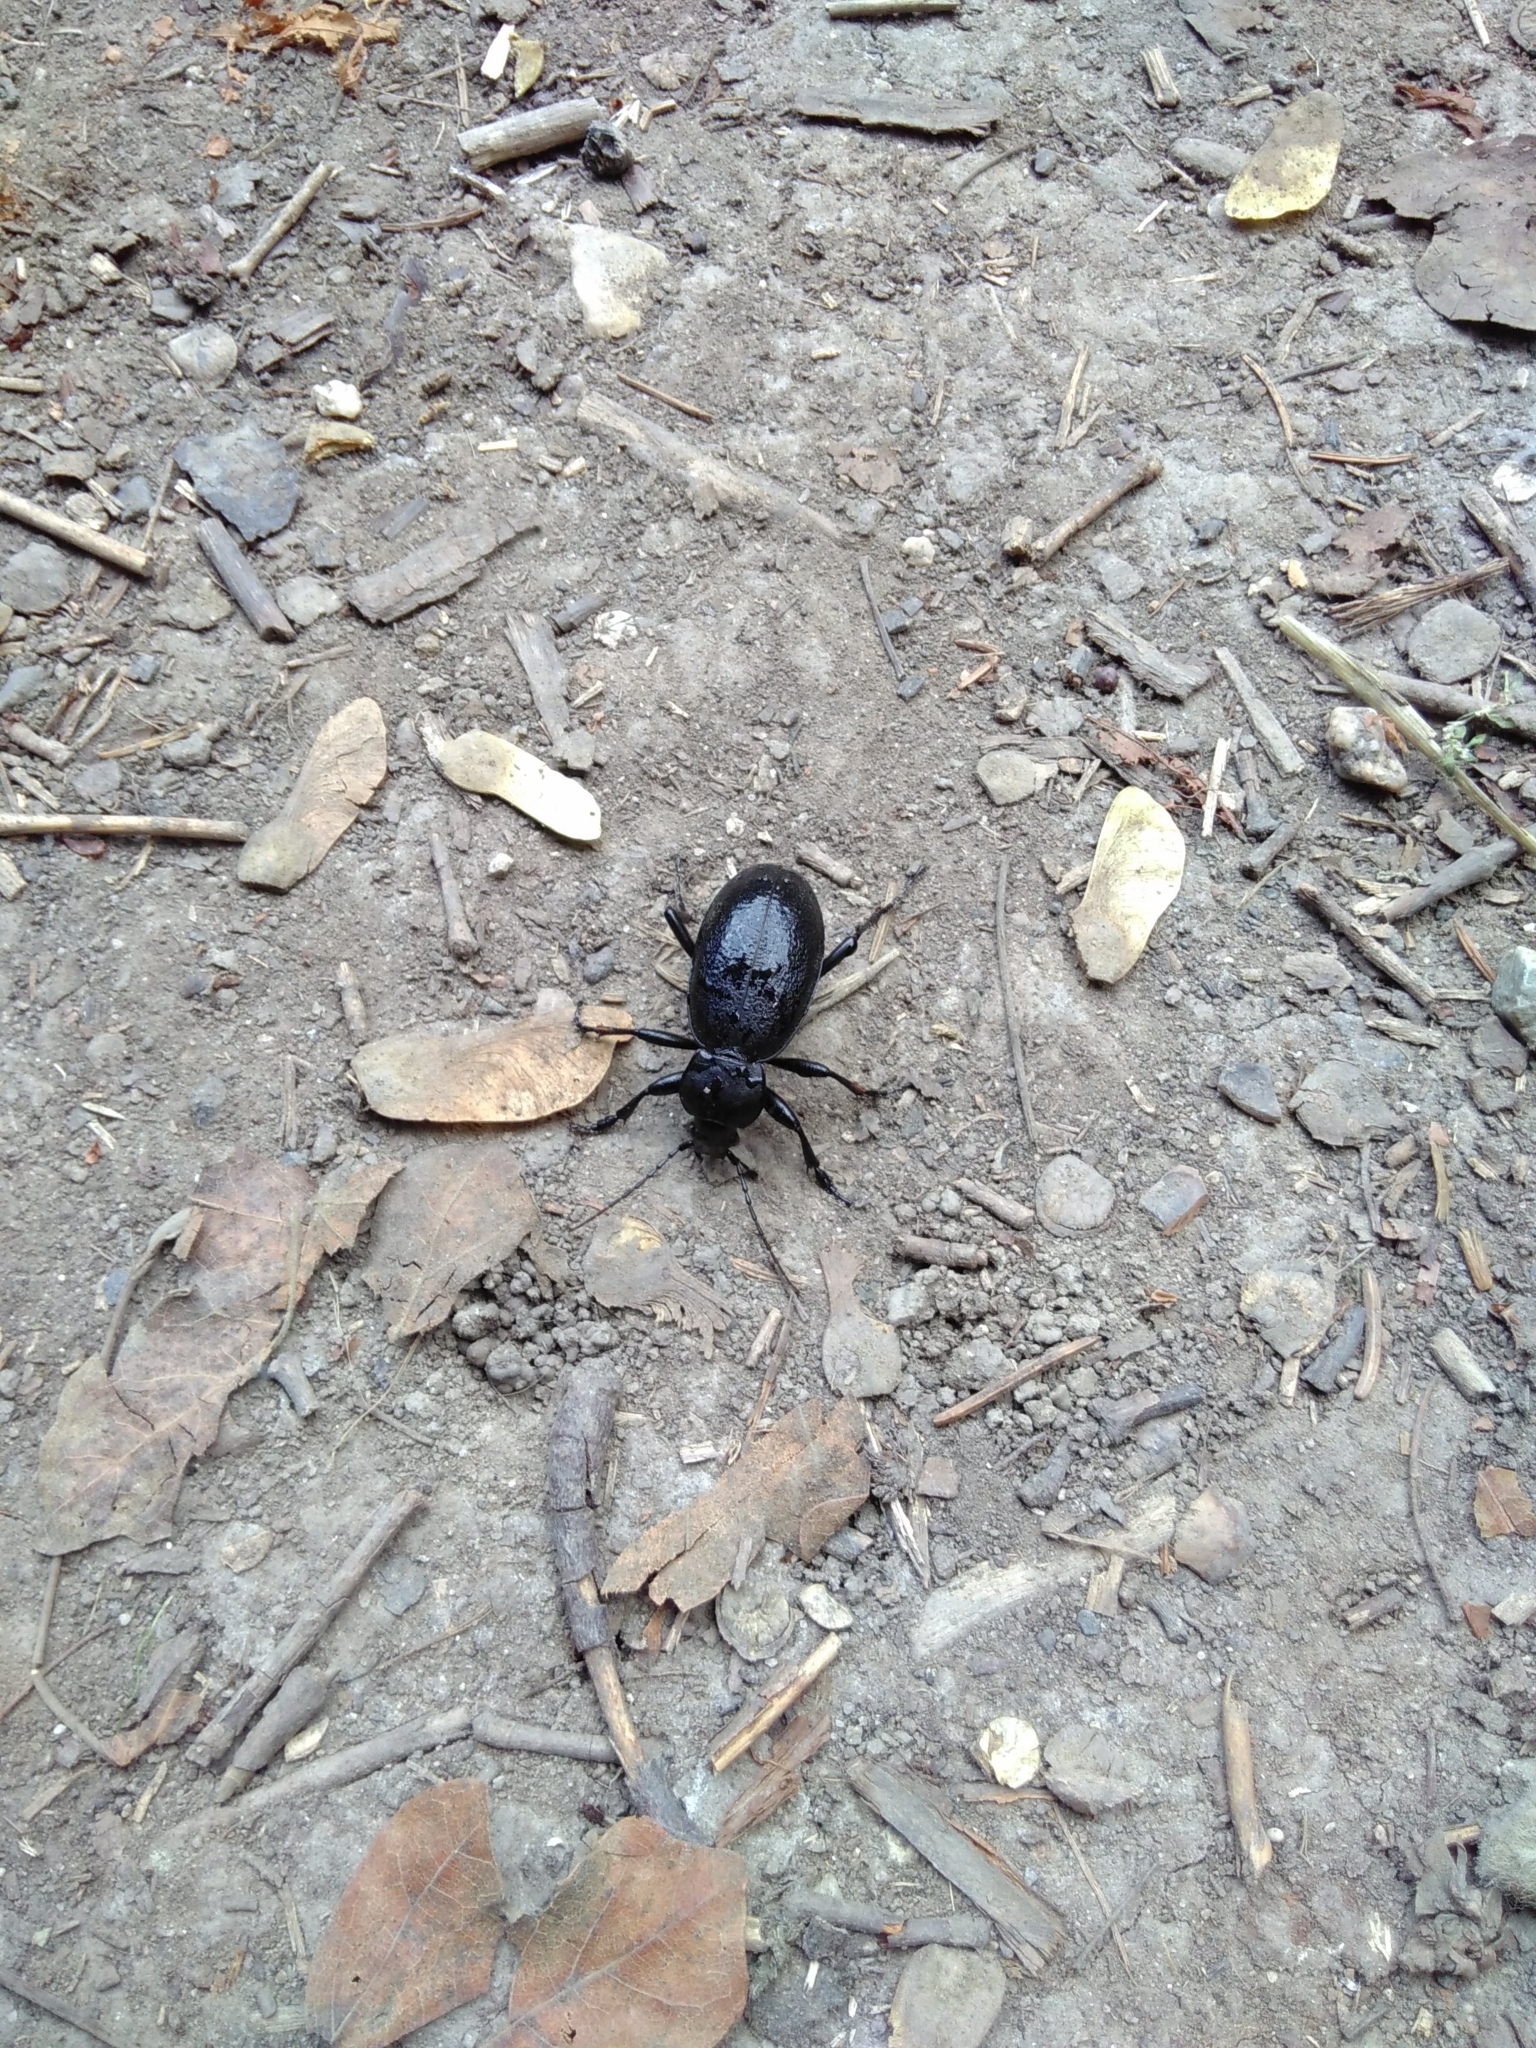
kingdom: Animalia
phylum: Arthropoda
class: Insecta
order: Coleoptera
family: Carabidae
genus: Carabus
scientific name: Carabus coriaceus
